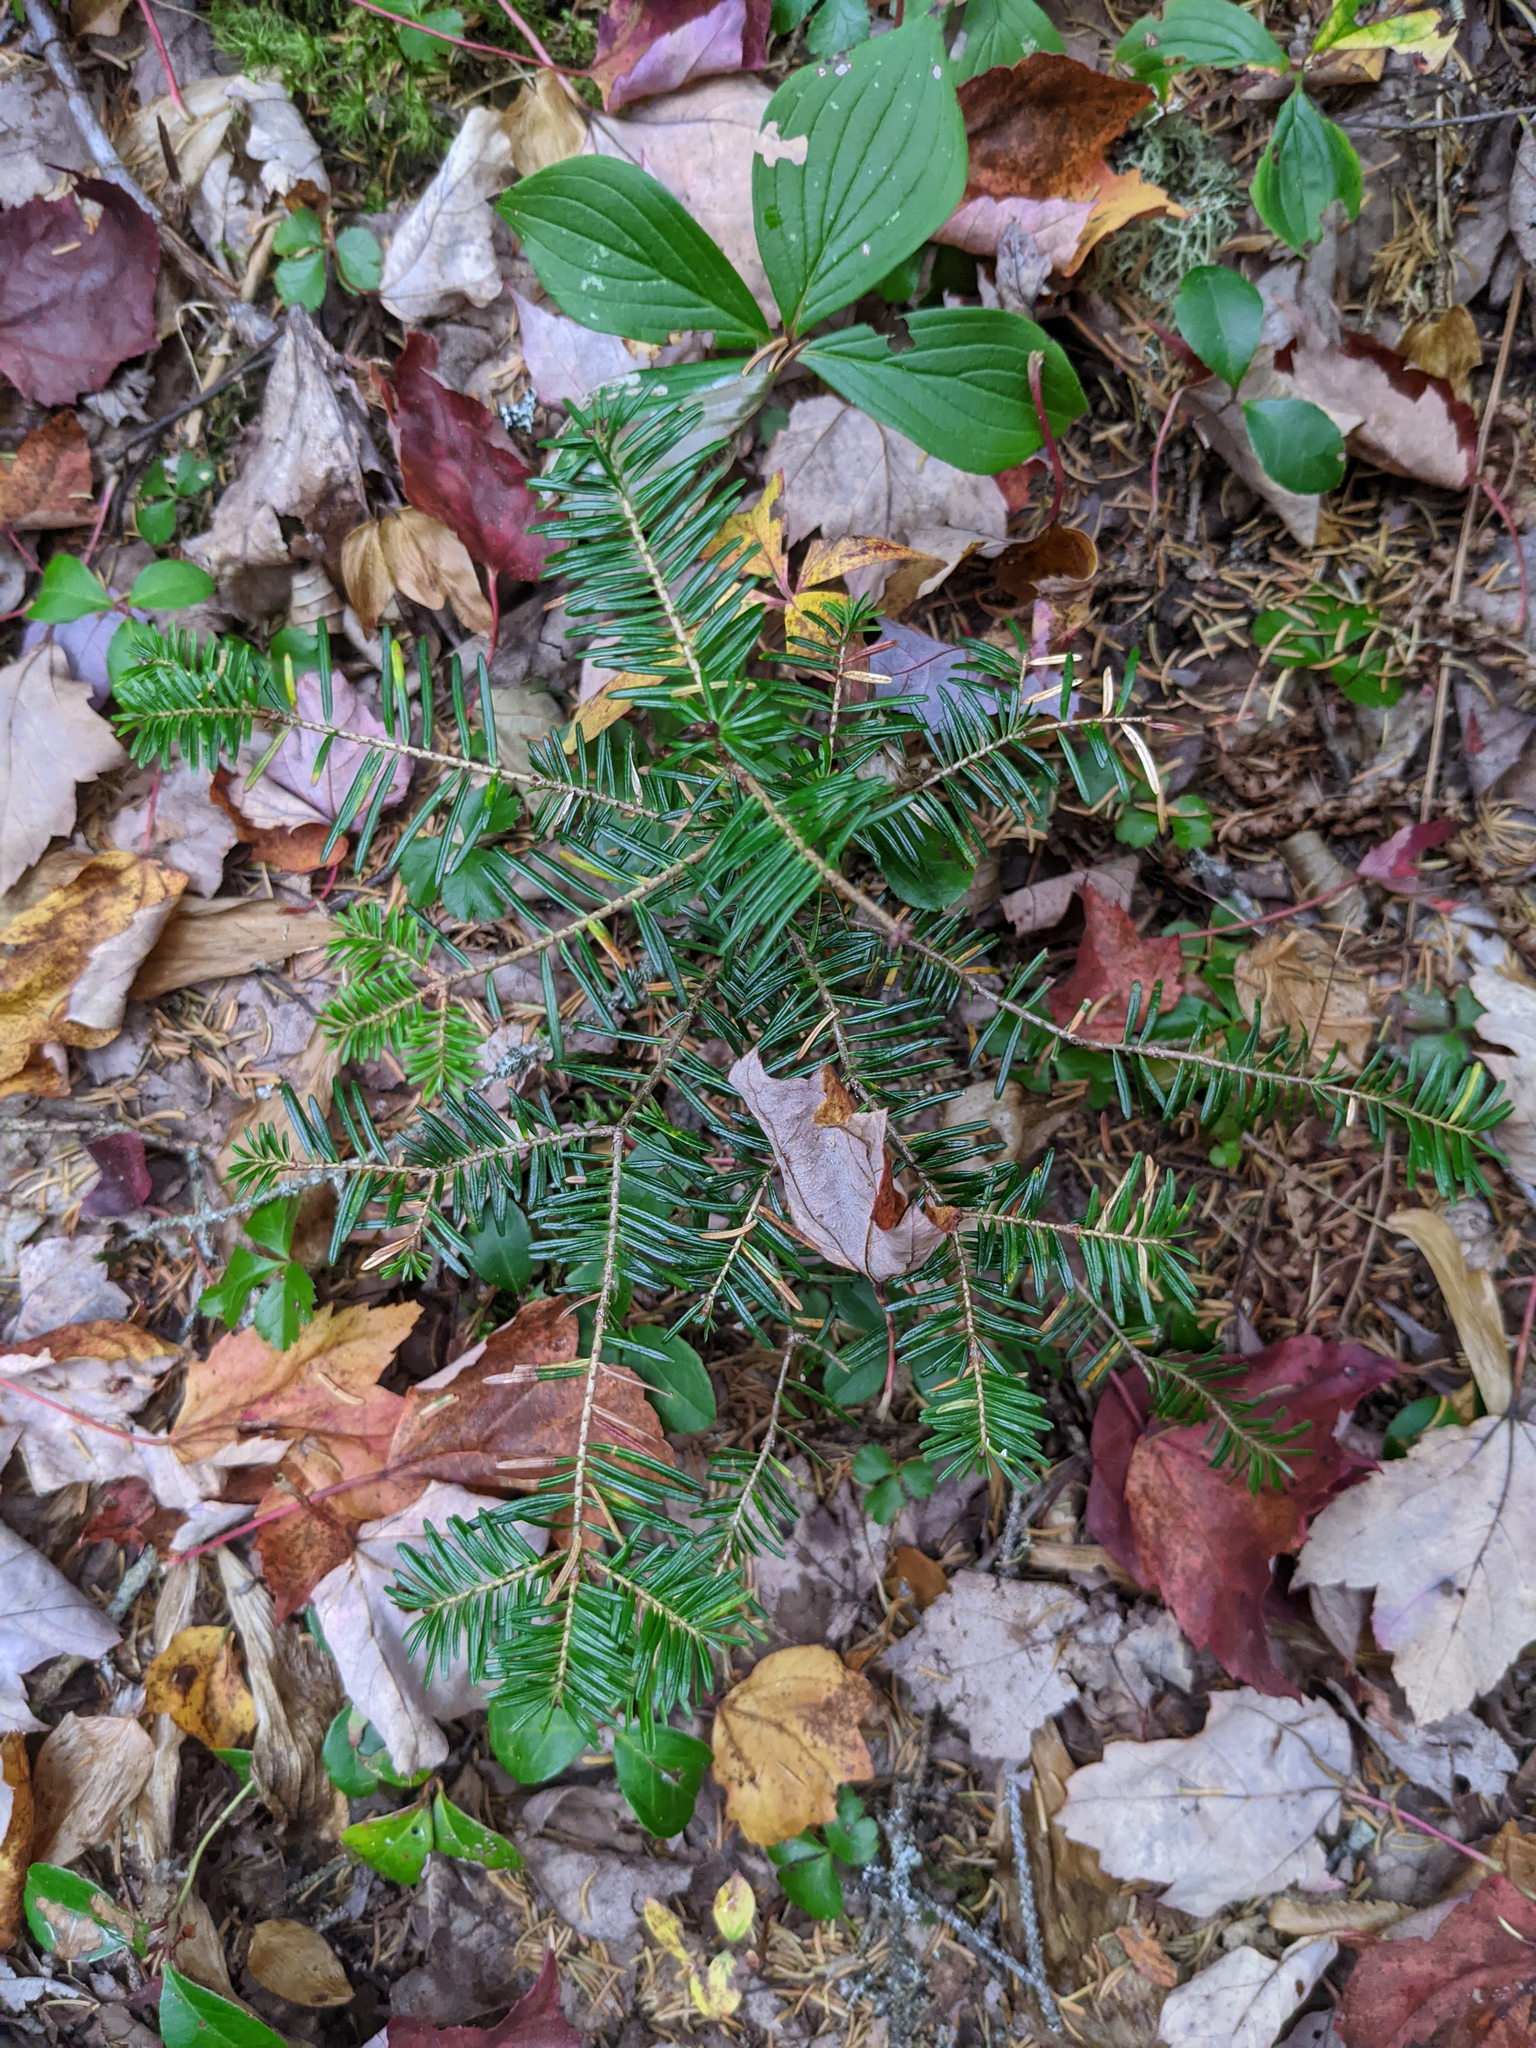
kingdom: Plantae
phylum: Tracheophyta
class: Pinopsida
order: Pinales
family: Pinaceae
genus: Abies
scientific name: Abies balsamea
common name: Balsam fir
